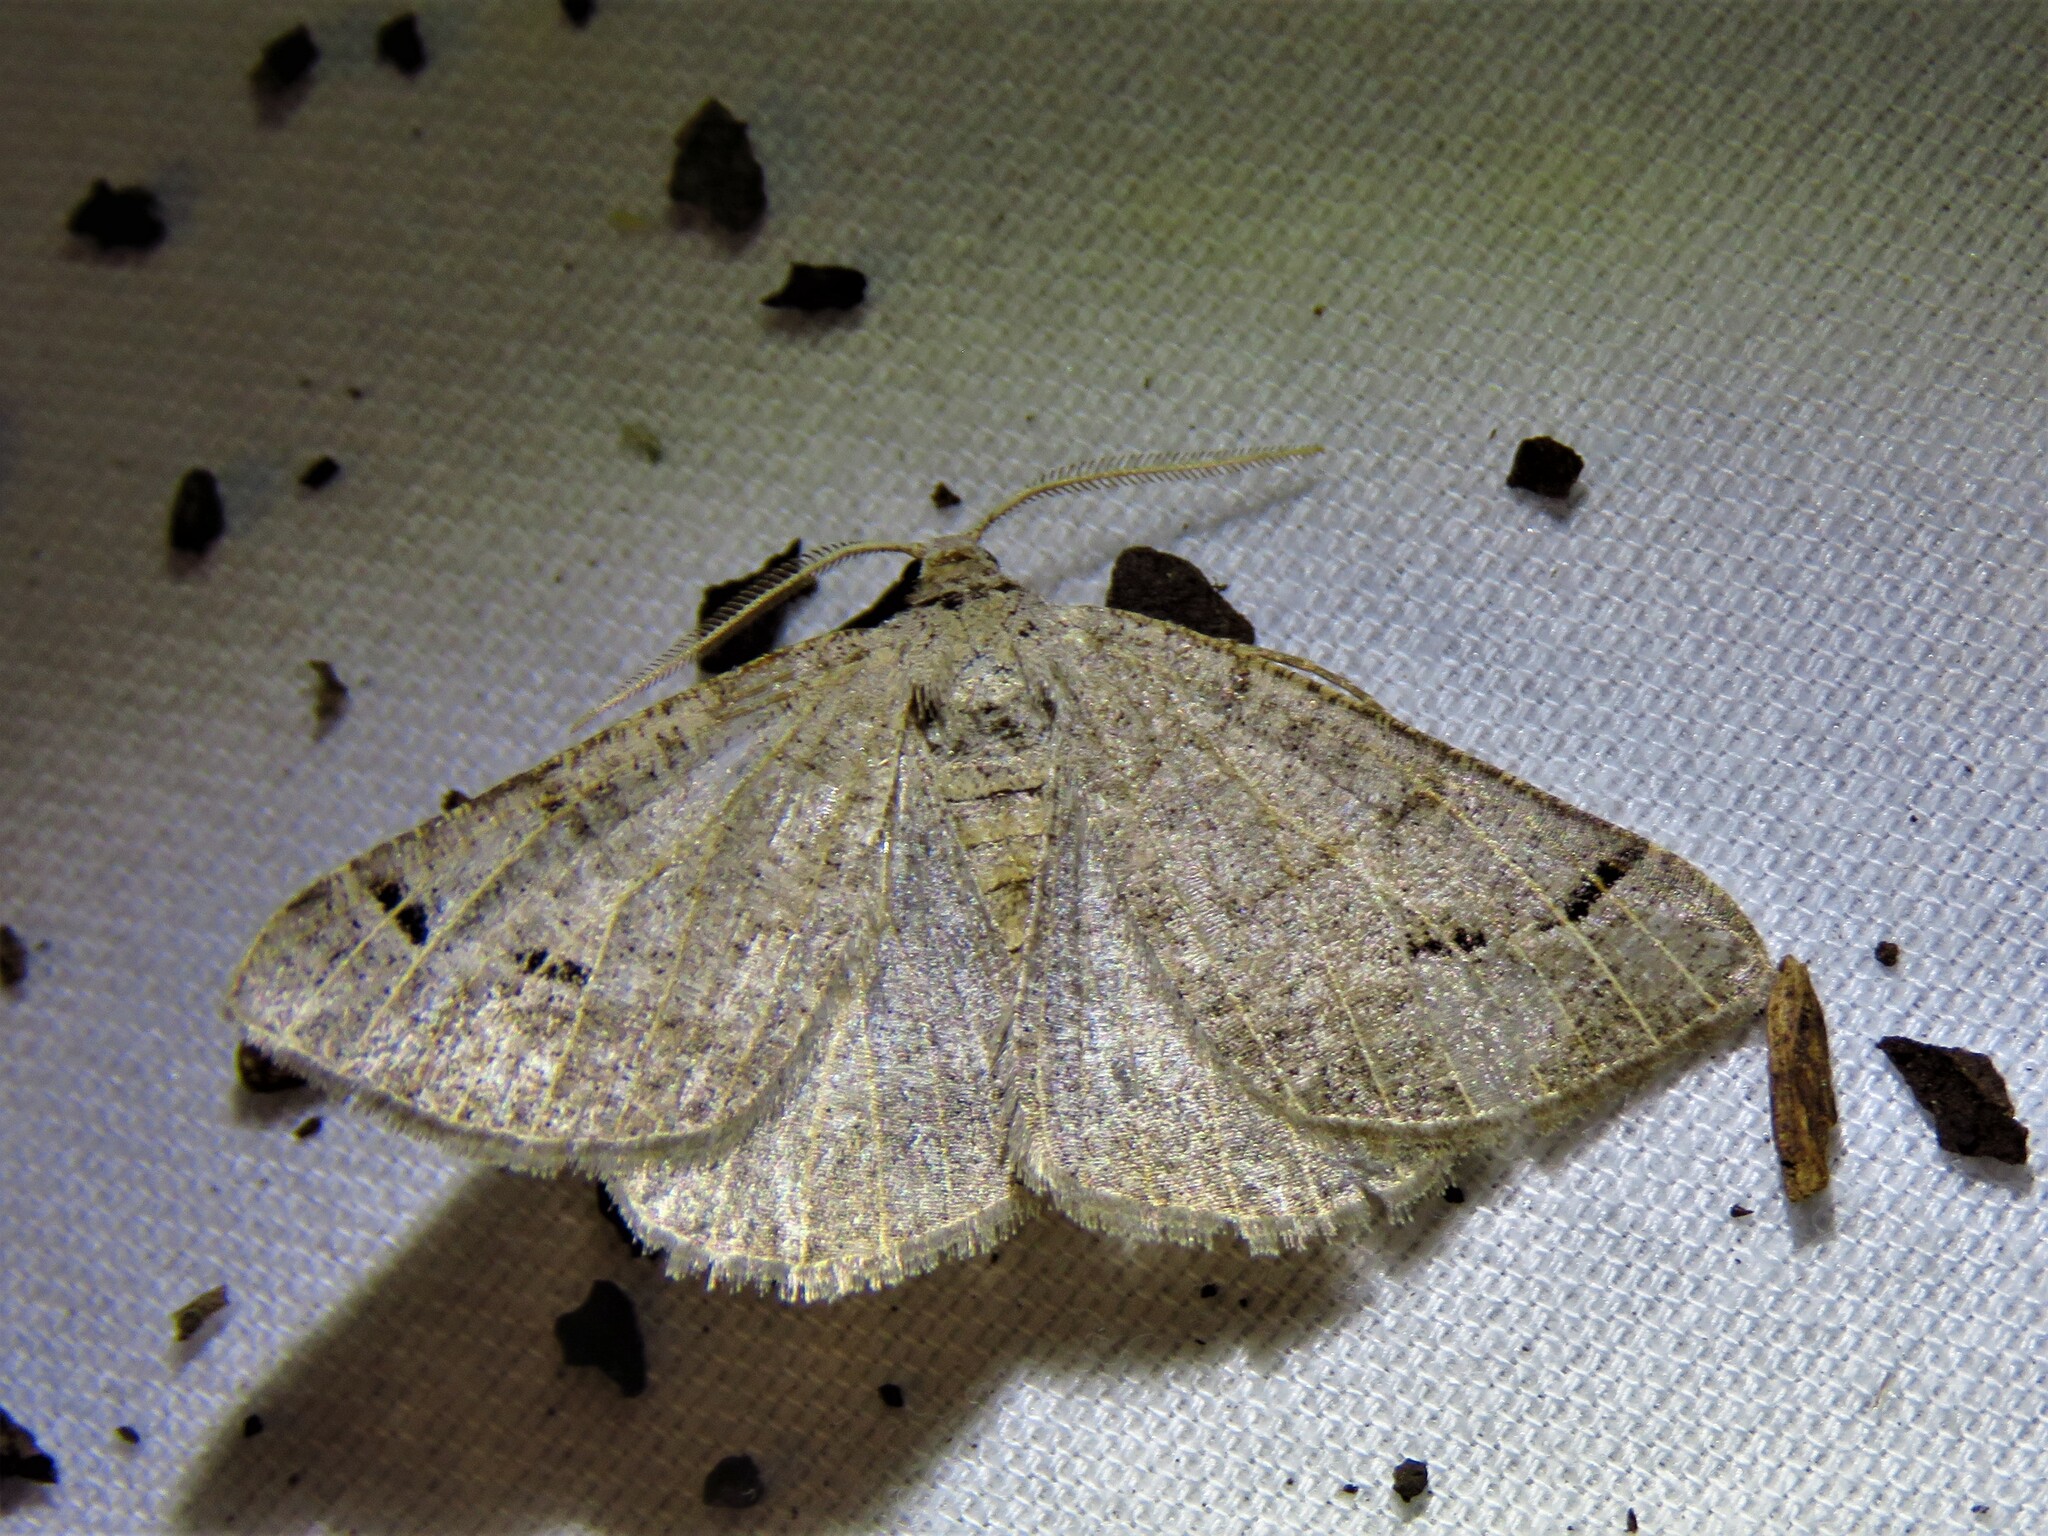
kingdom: Animalia
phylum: Arthropoda
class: Insecta
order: Lepidoptera
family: Geometridae
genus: Isturgia
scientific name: Isturgia dislocaria
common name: Pale-viened enconista
